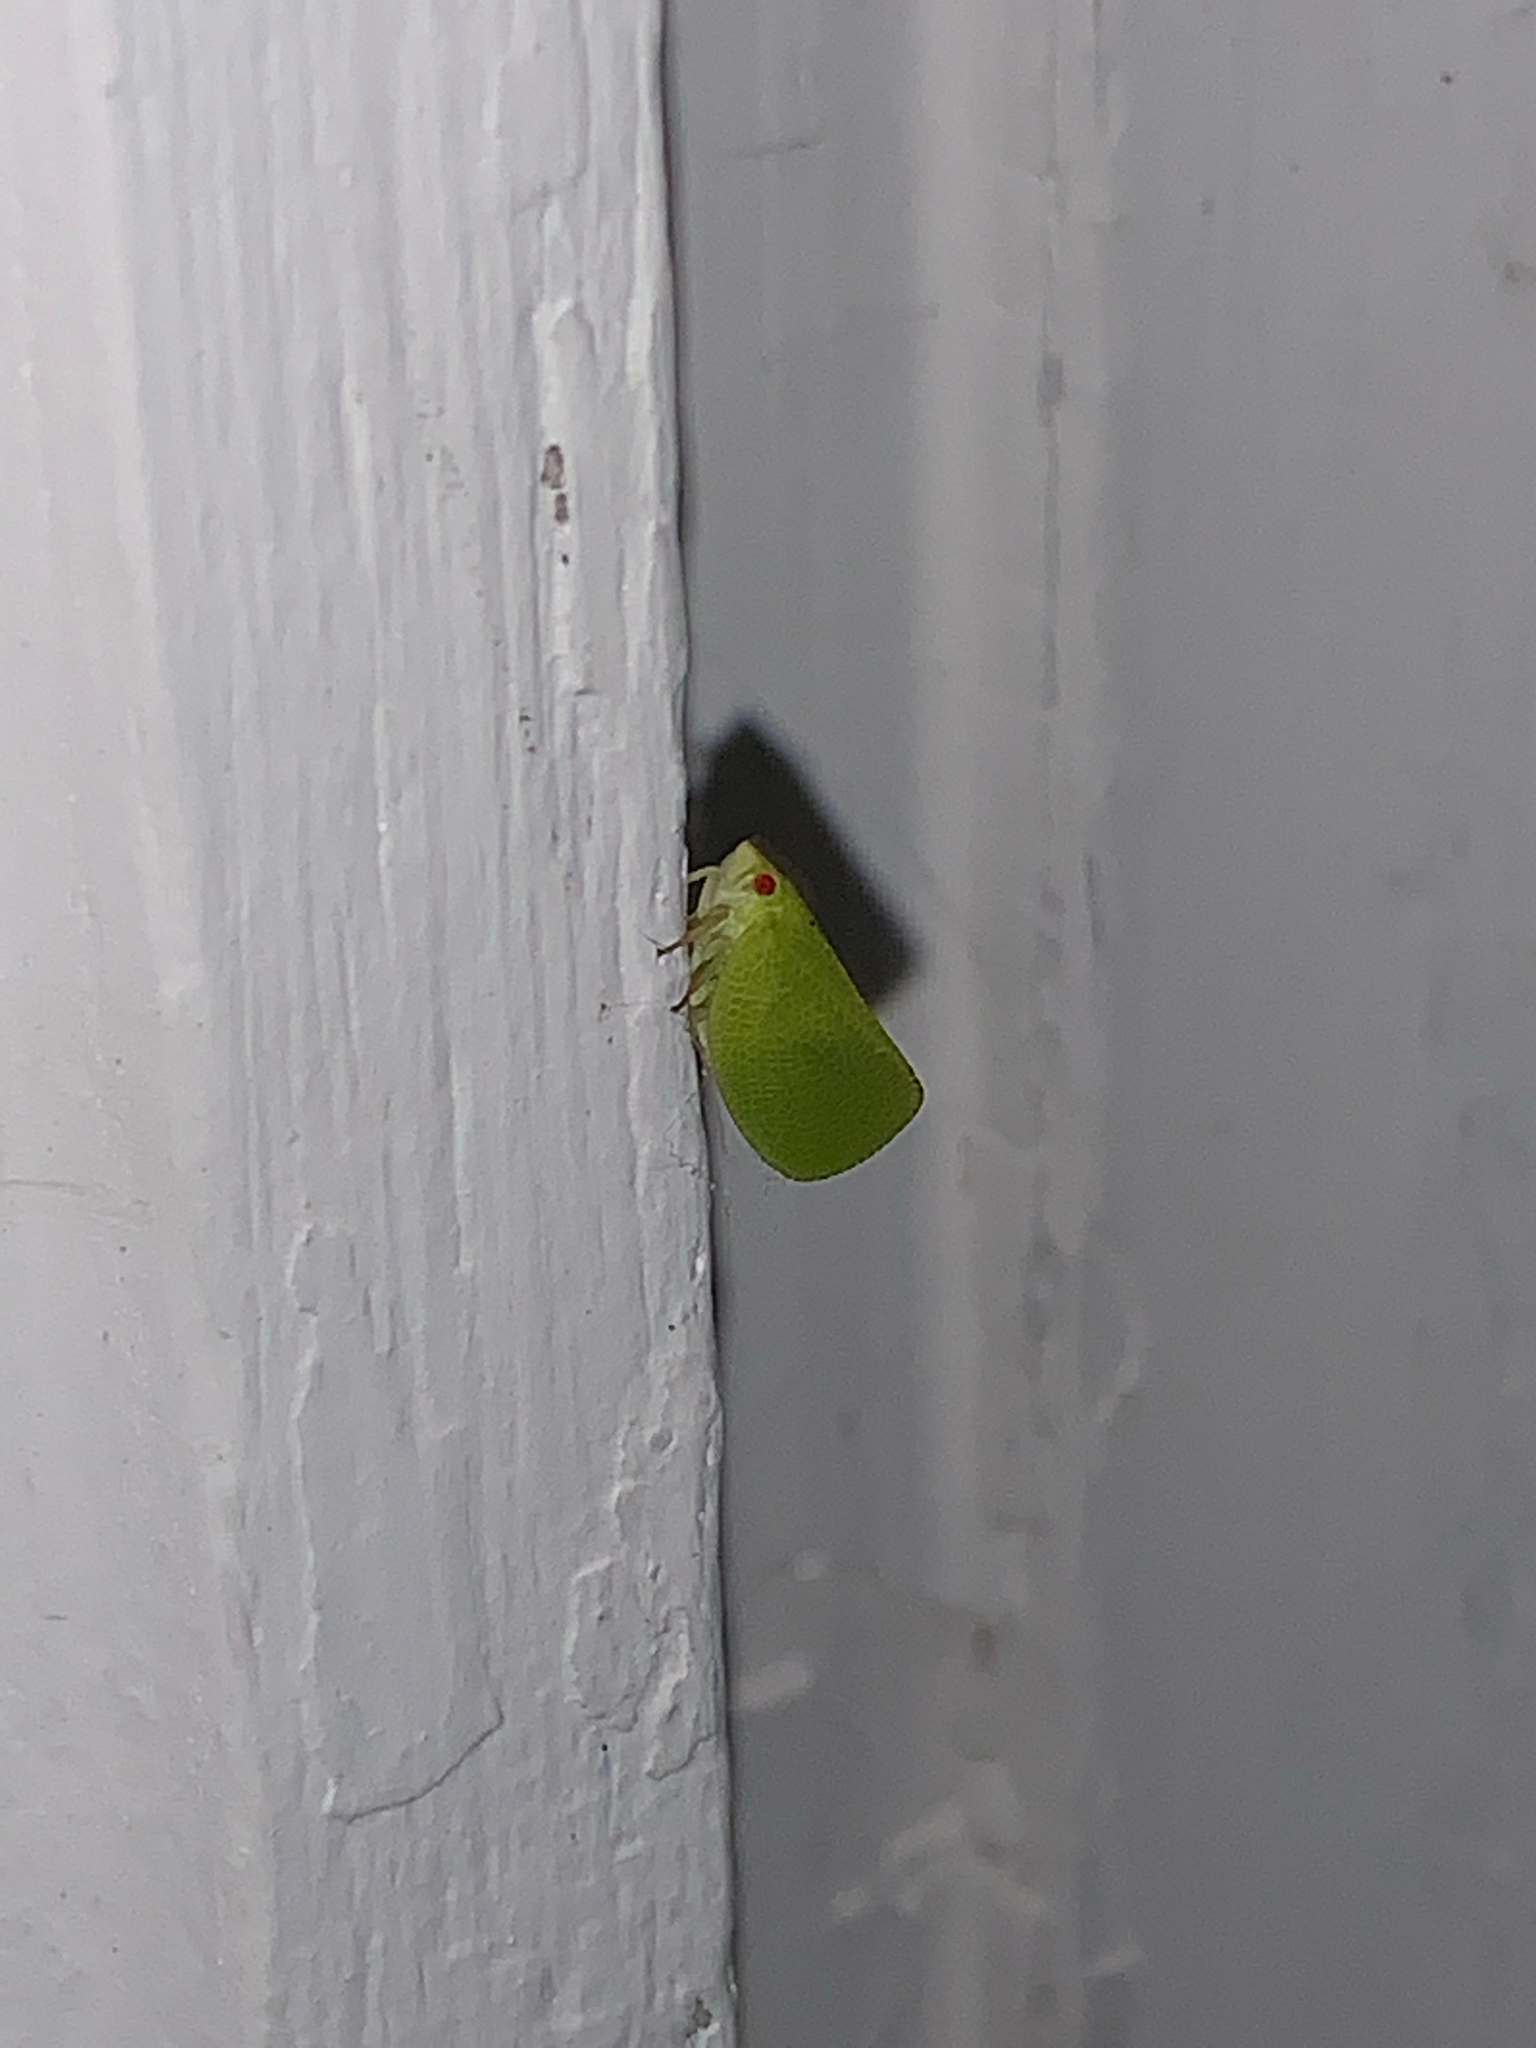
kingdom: Animalia
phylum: Arthropoda
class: Insecta
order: Hemiptera
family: Acanaloniidae
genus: Acanalonia
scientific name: Acanalonia conica
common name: Green cone-headed planthopper
